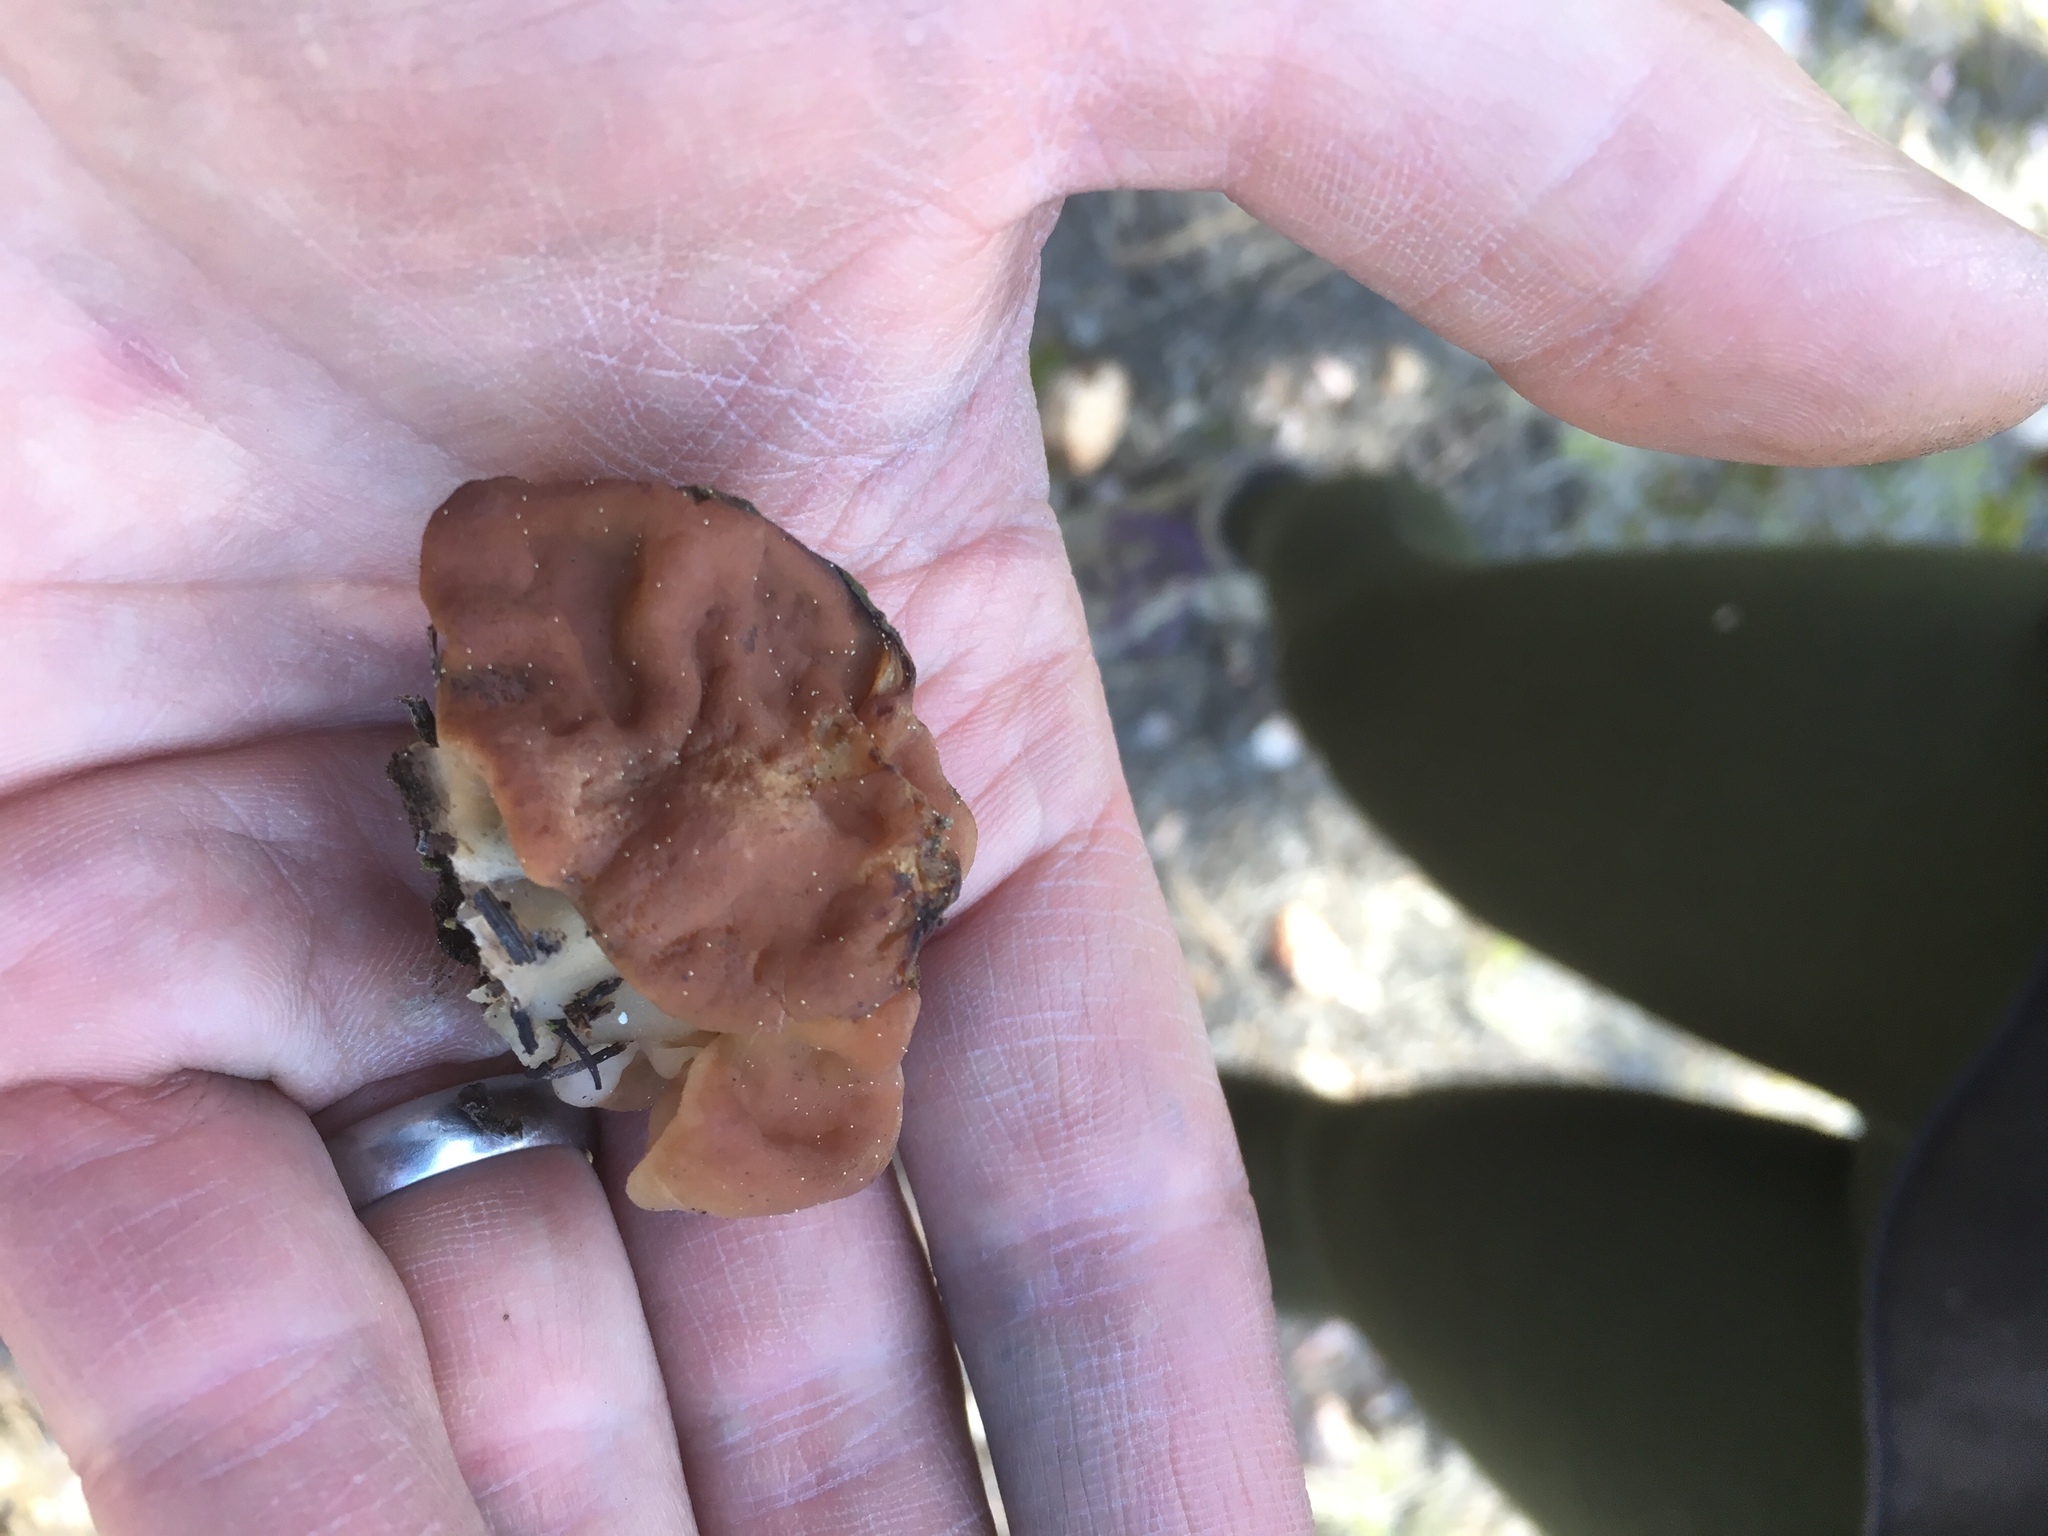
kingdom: Fungi
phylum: Ascomycota
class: Pezizomycetes
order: Pezizales
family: Discinaceae
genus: Discina
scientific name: Discina montana
